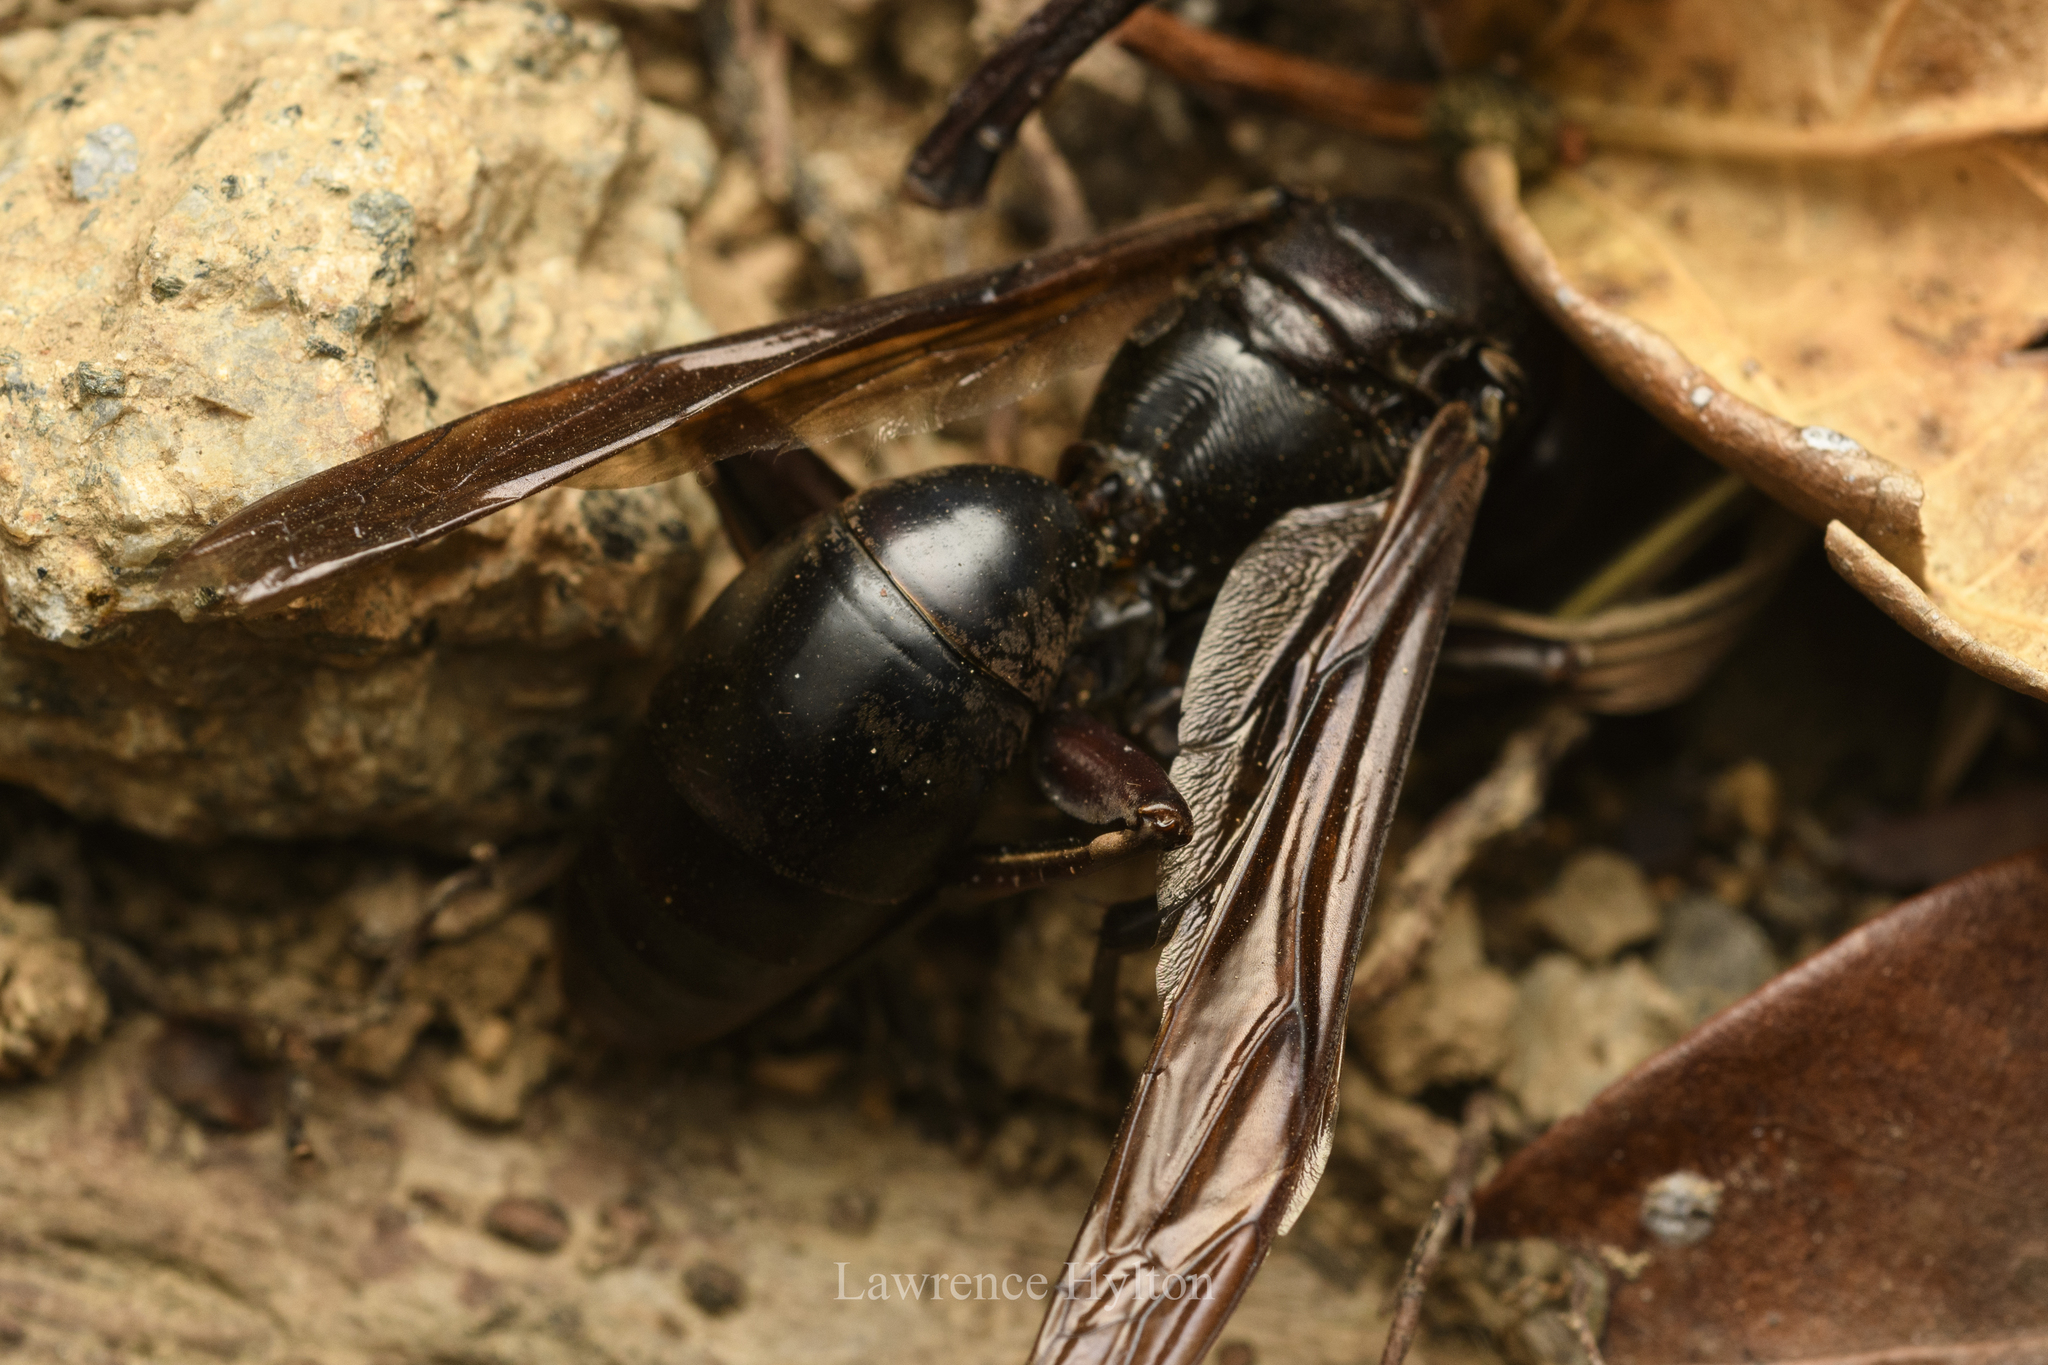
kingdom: Animalia
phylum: Arthropoda
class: Insecta
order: Hymenoptera
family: Eumenidae
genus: Polistes
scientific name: Polistes gigas
